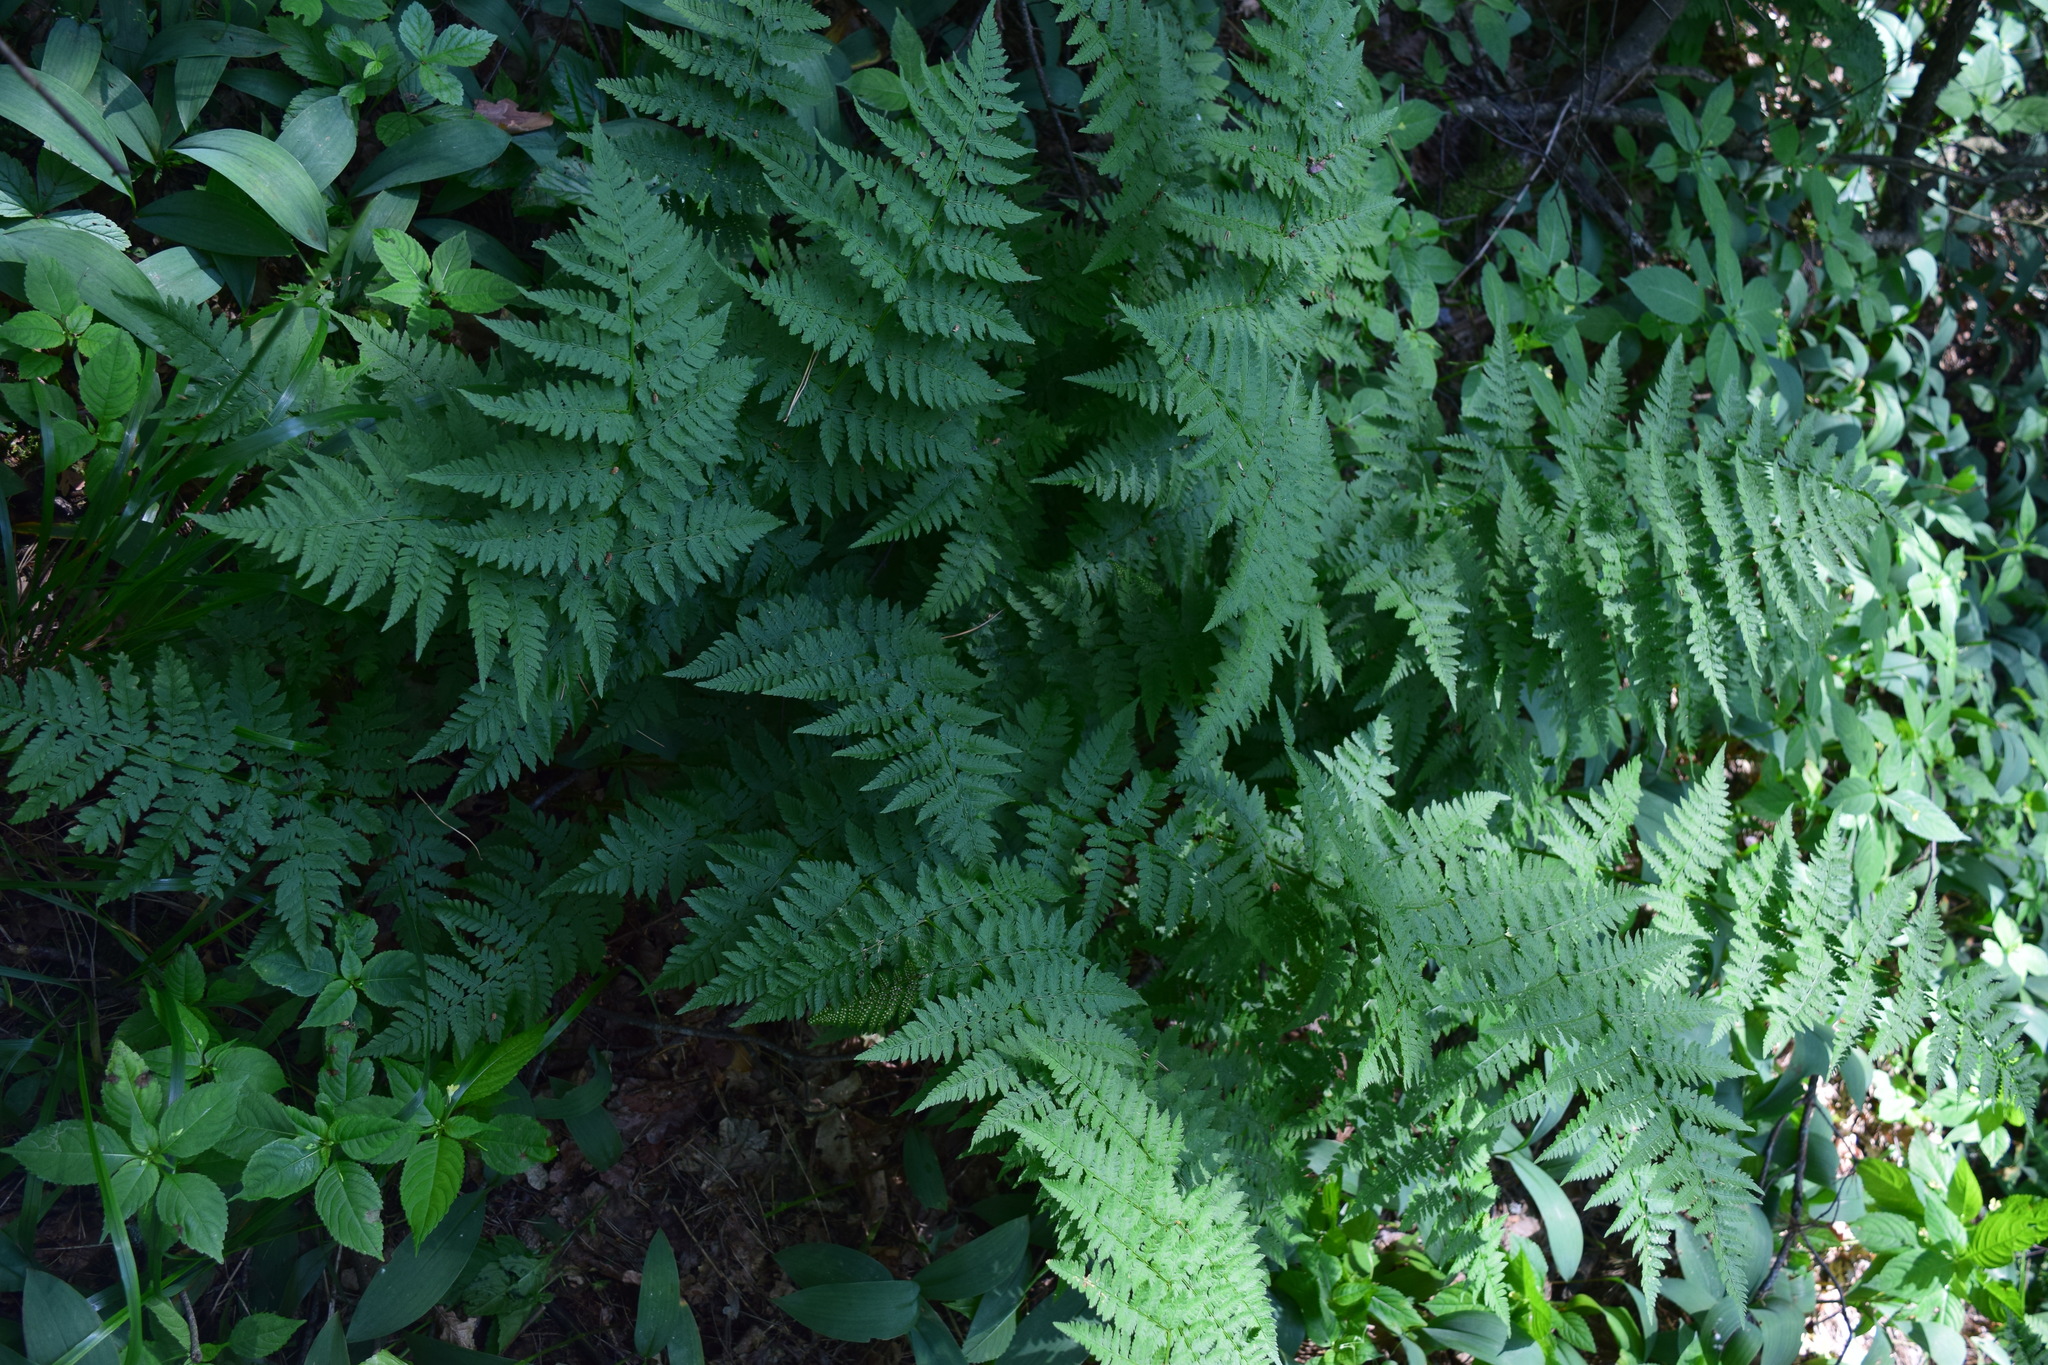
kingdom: Plantae
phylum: Tracheophyta
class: Polypodiopsida
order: Polypodiales
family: Dryopteridaceae
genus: Dryopteris
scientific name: Dryopteris carthusiana
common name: Narrow buckler-fern
